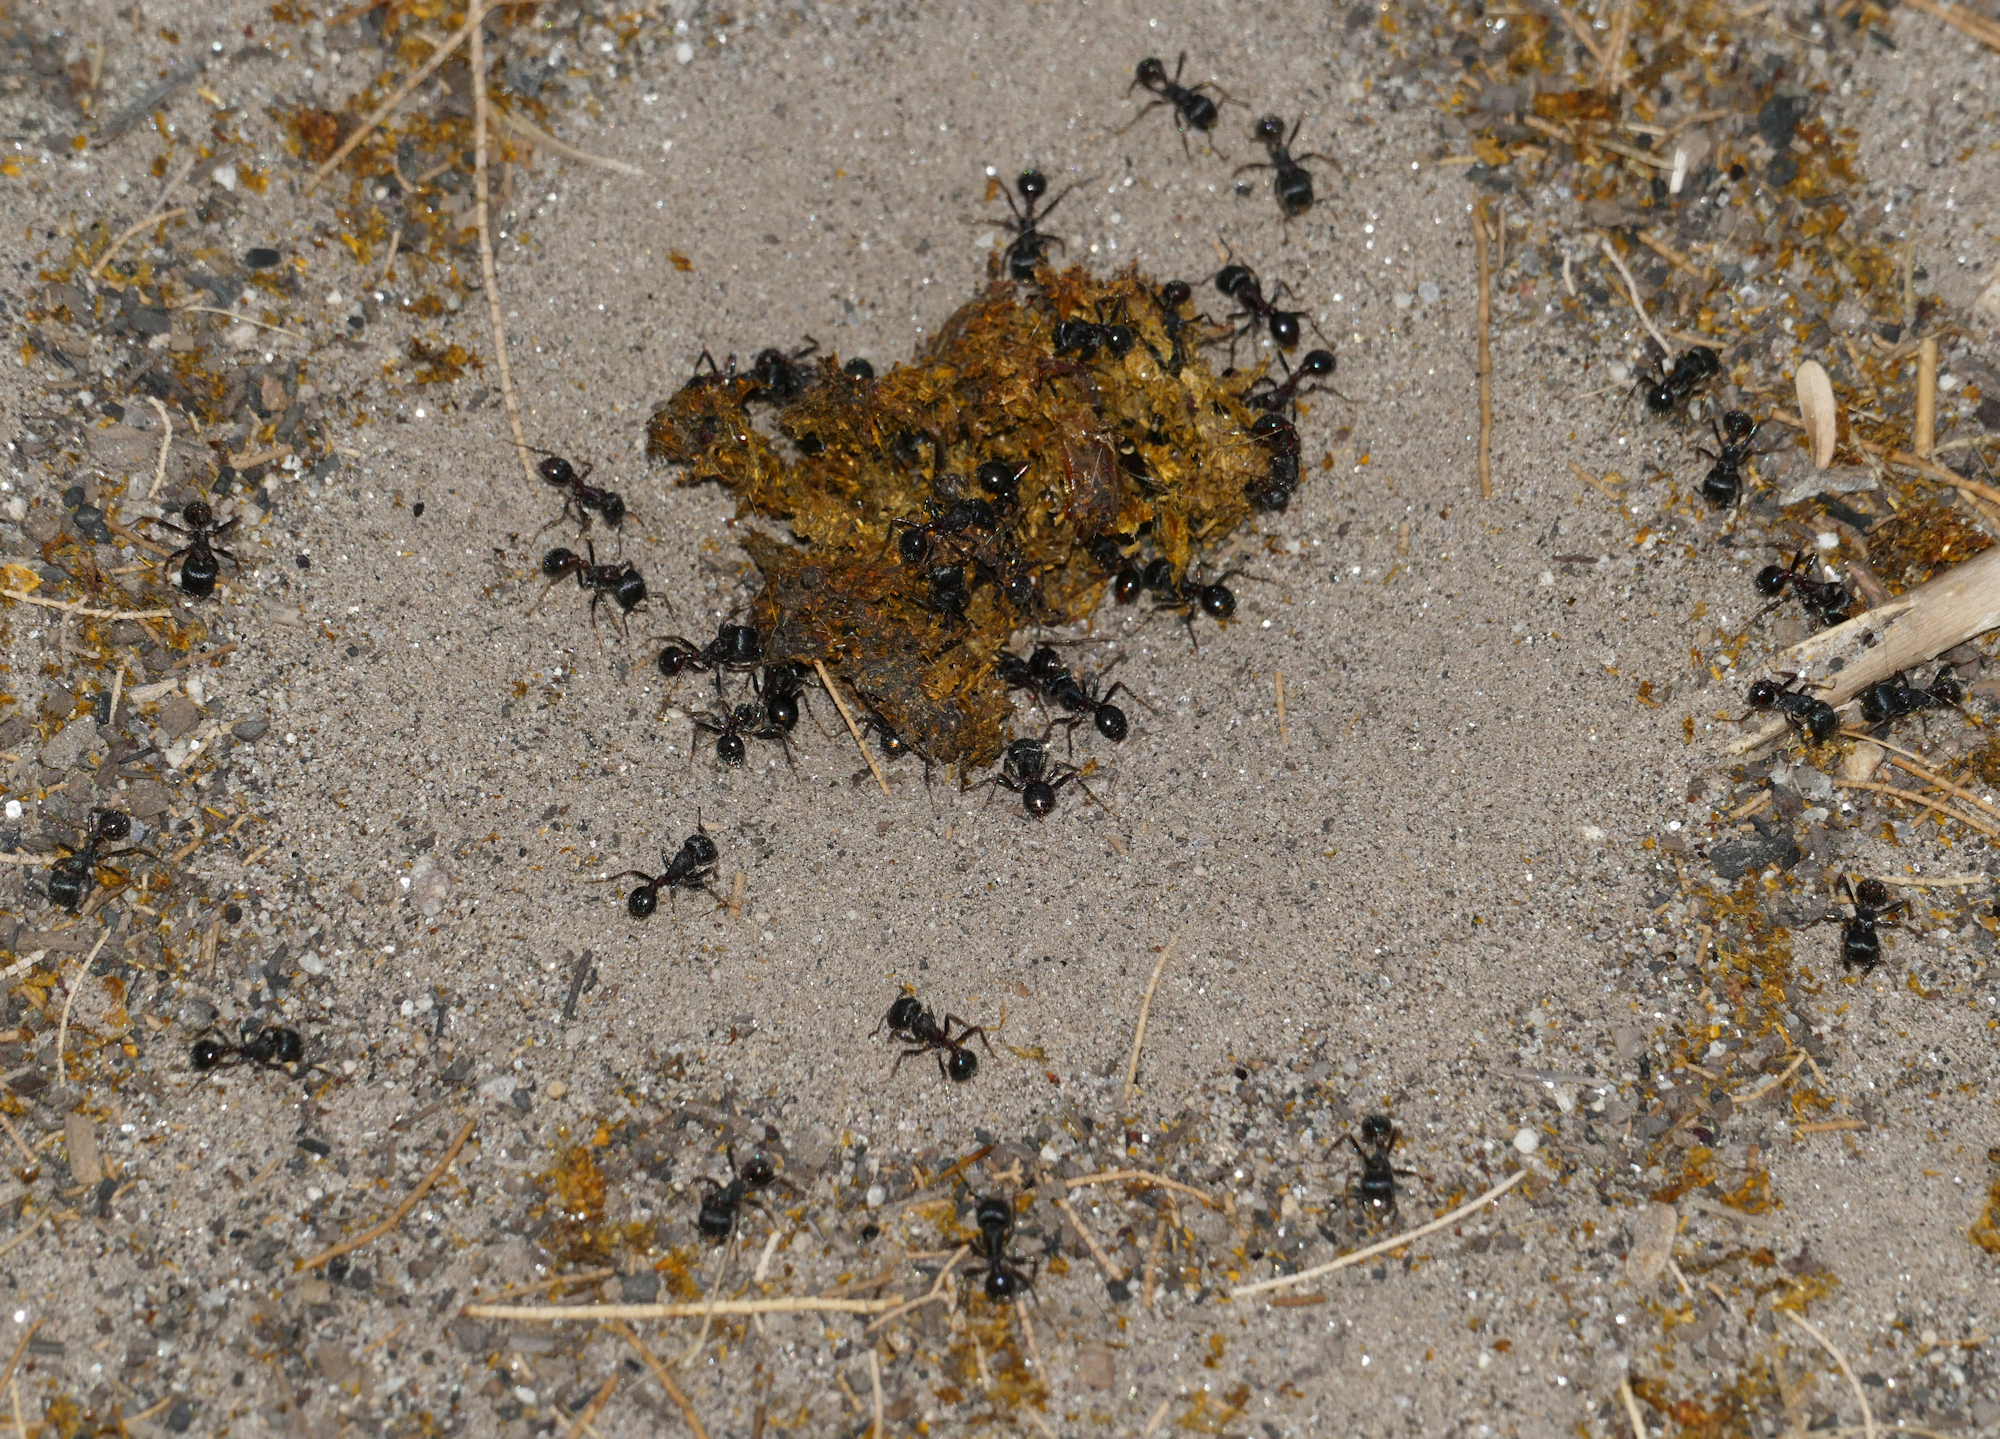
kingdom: Animalia
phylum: Arthropoda
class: Insecta
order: Hymenoptera
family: Formicidae
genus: Pogonomyrmex
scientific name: Pogonomyrmex rugosus
